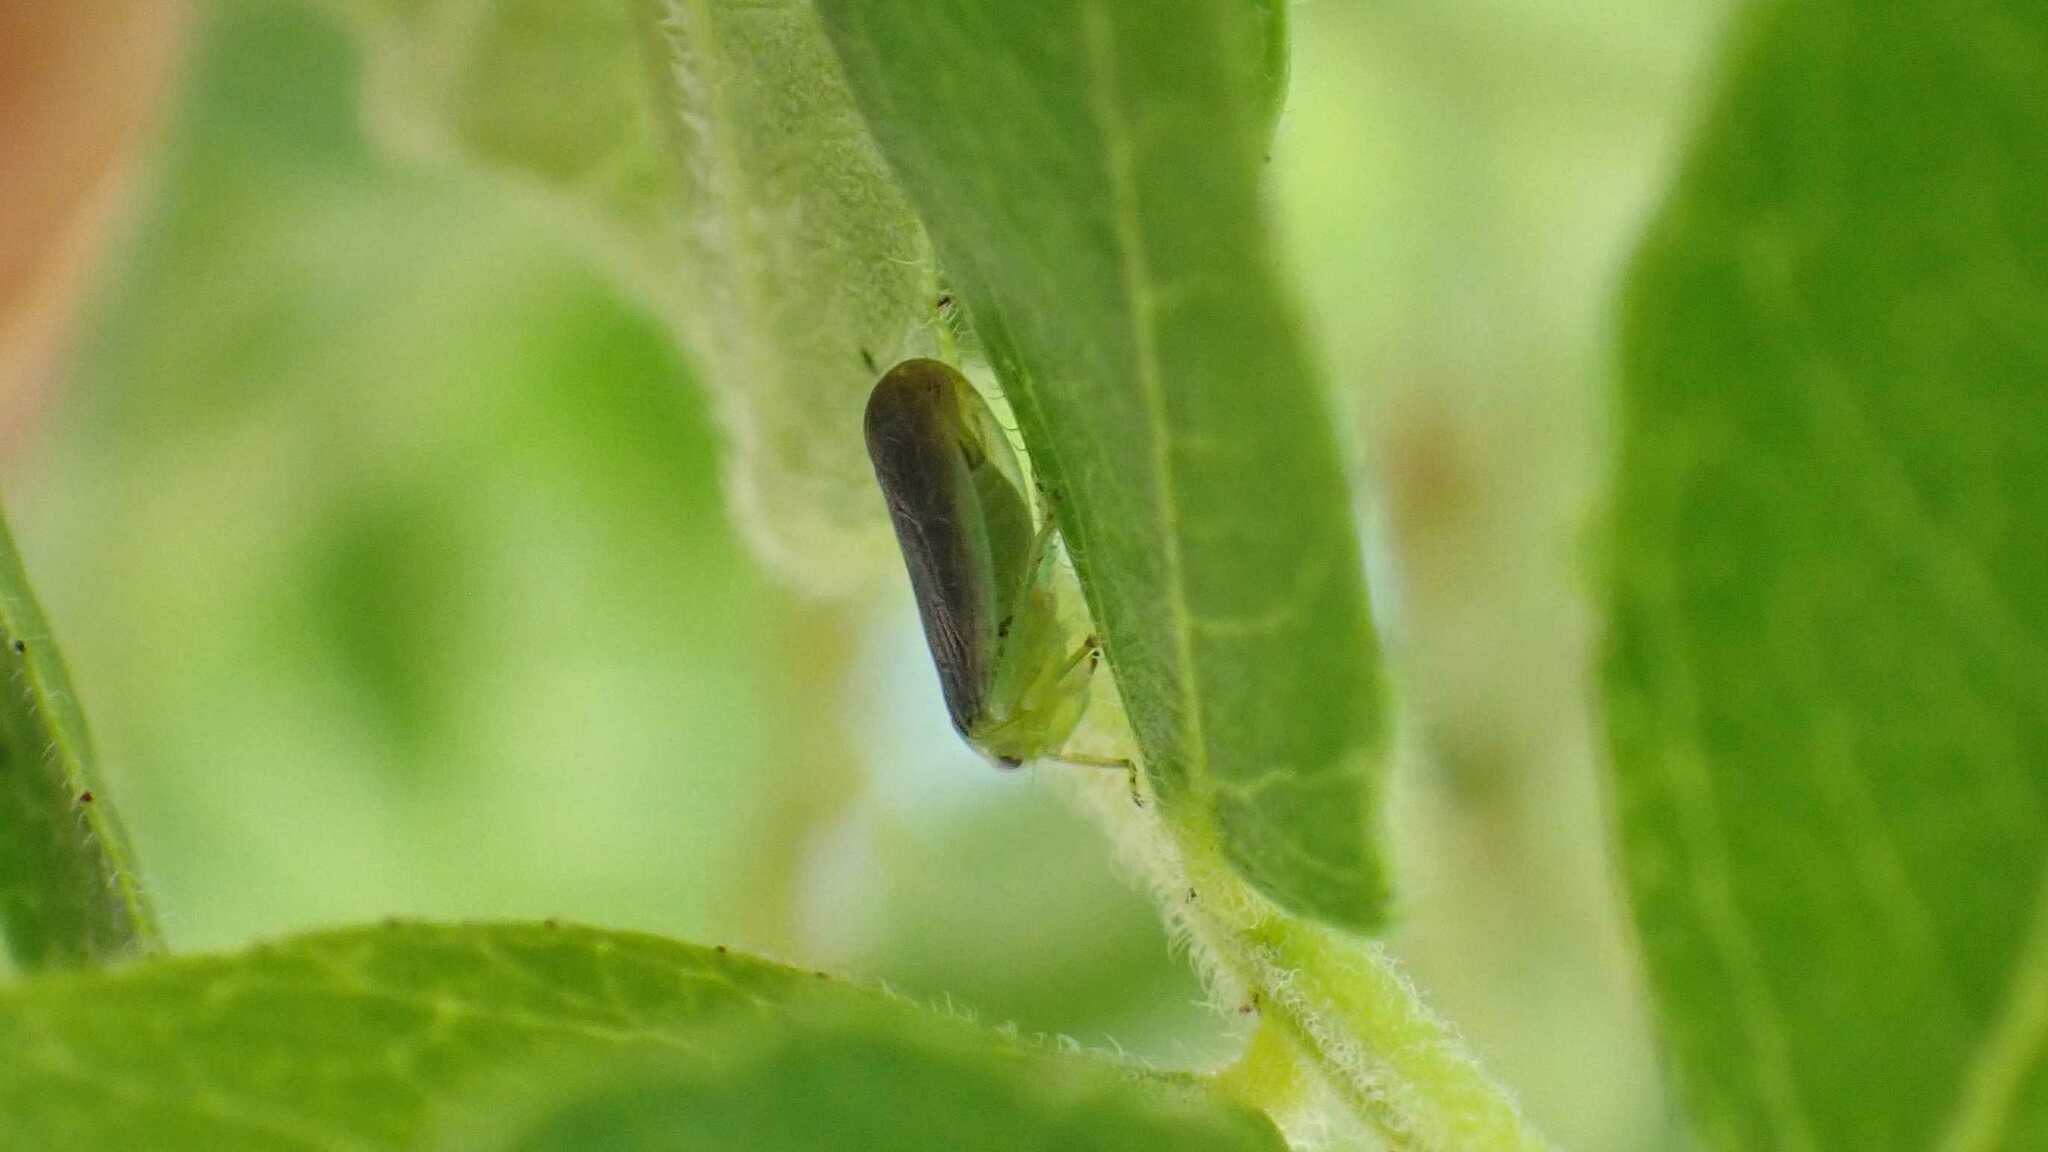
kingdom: Animalia
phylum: Arthropoda
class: Insecta
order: Hemiptera
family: Cicadellidae
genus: Macropsis
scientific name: Macropsis fumipennis
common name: The honeylocust leafhopper
